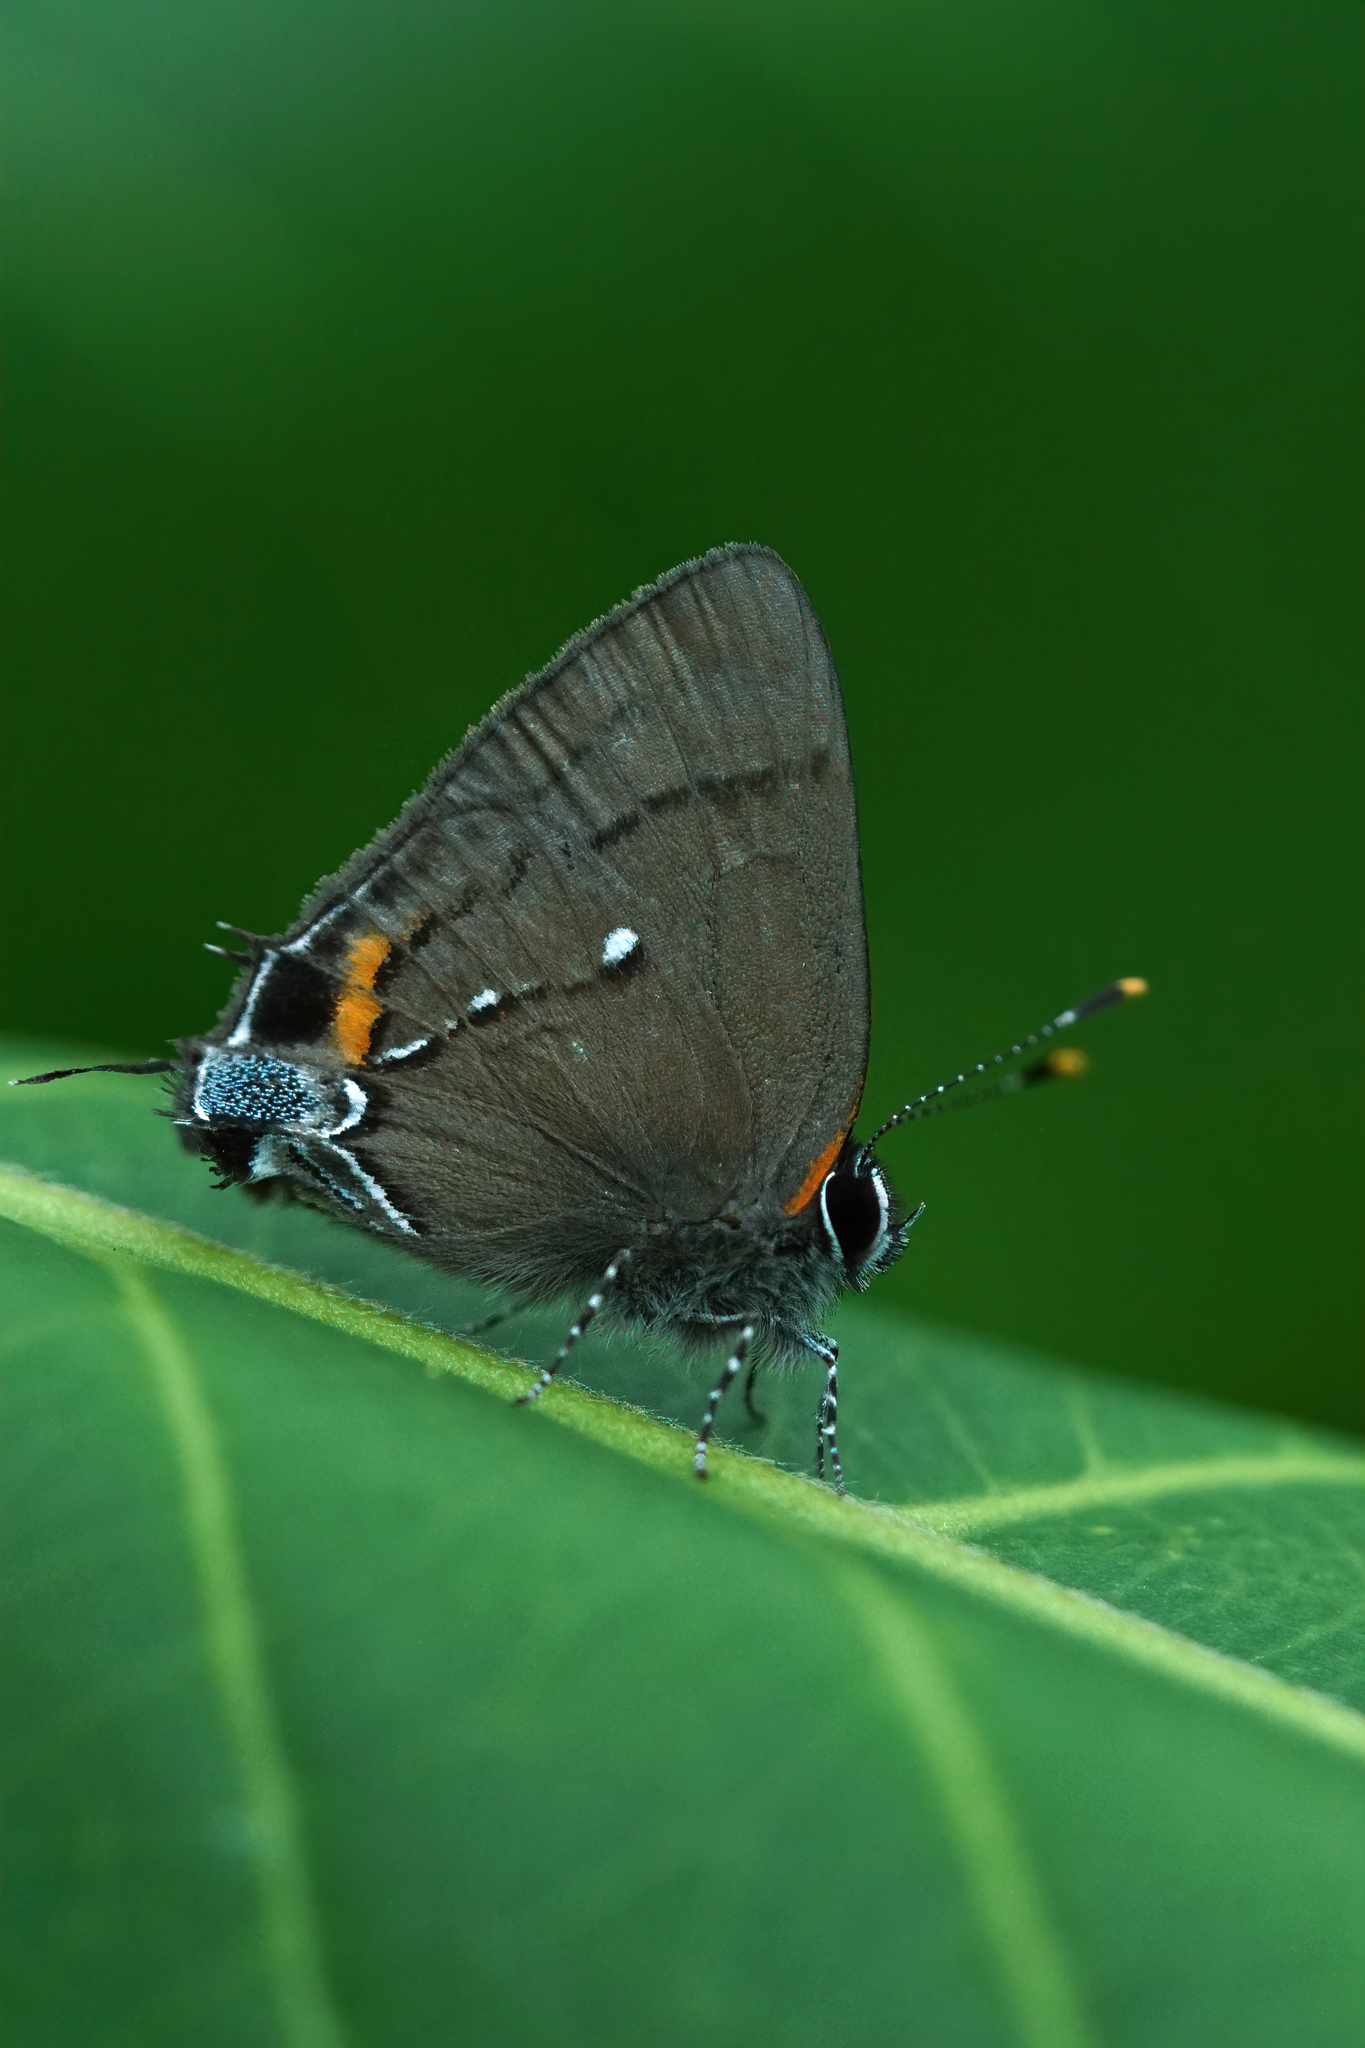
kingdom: Animalia
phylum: Arthropoda
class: Insecta
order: Lepidoptera
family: Lycaenidae
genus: Thecla
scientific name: Thecla angelia
